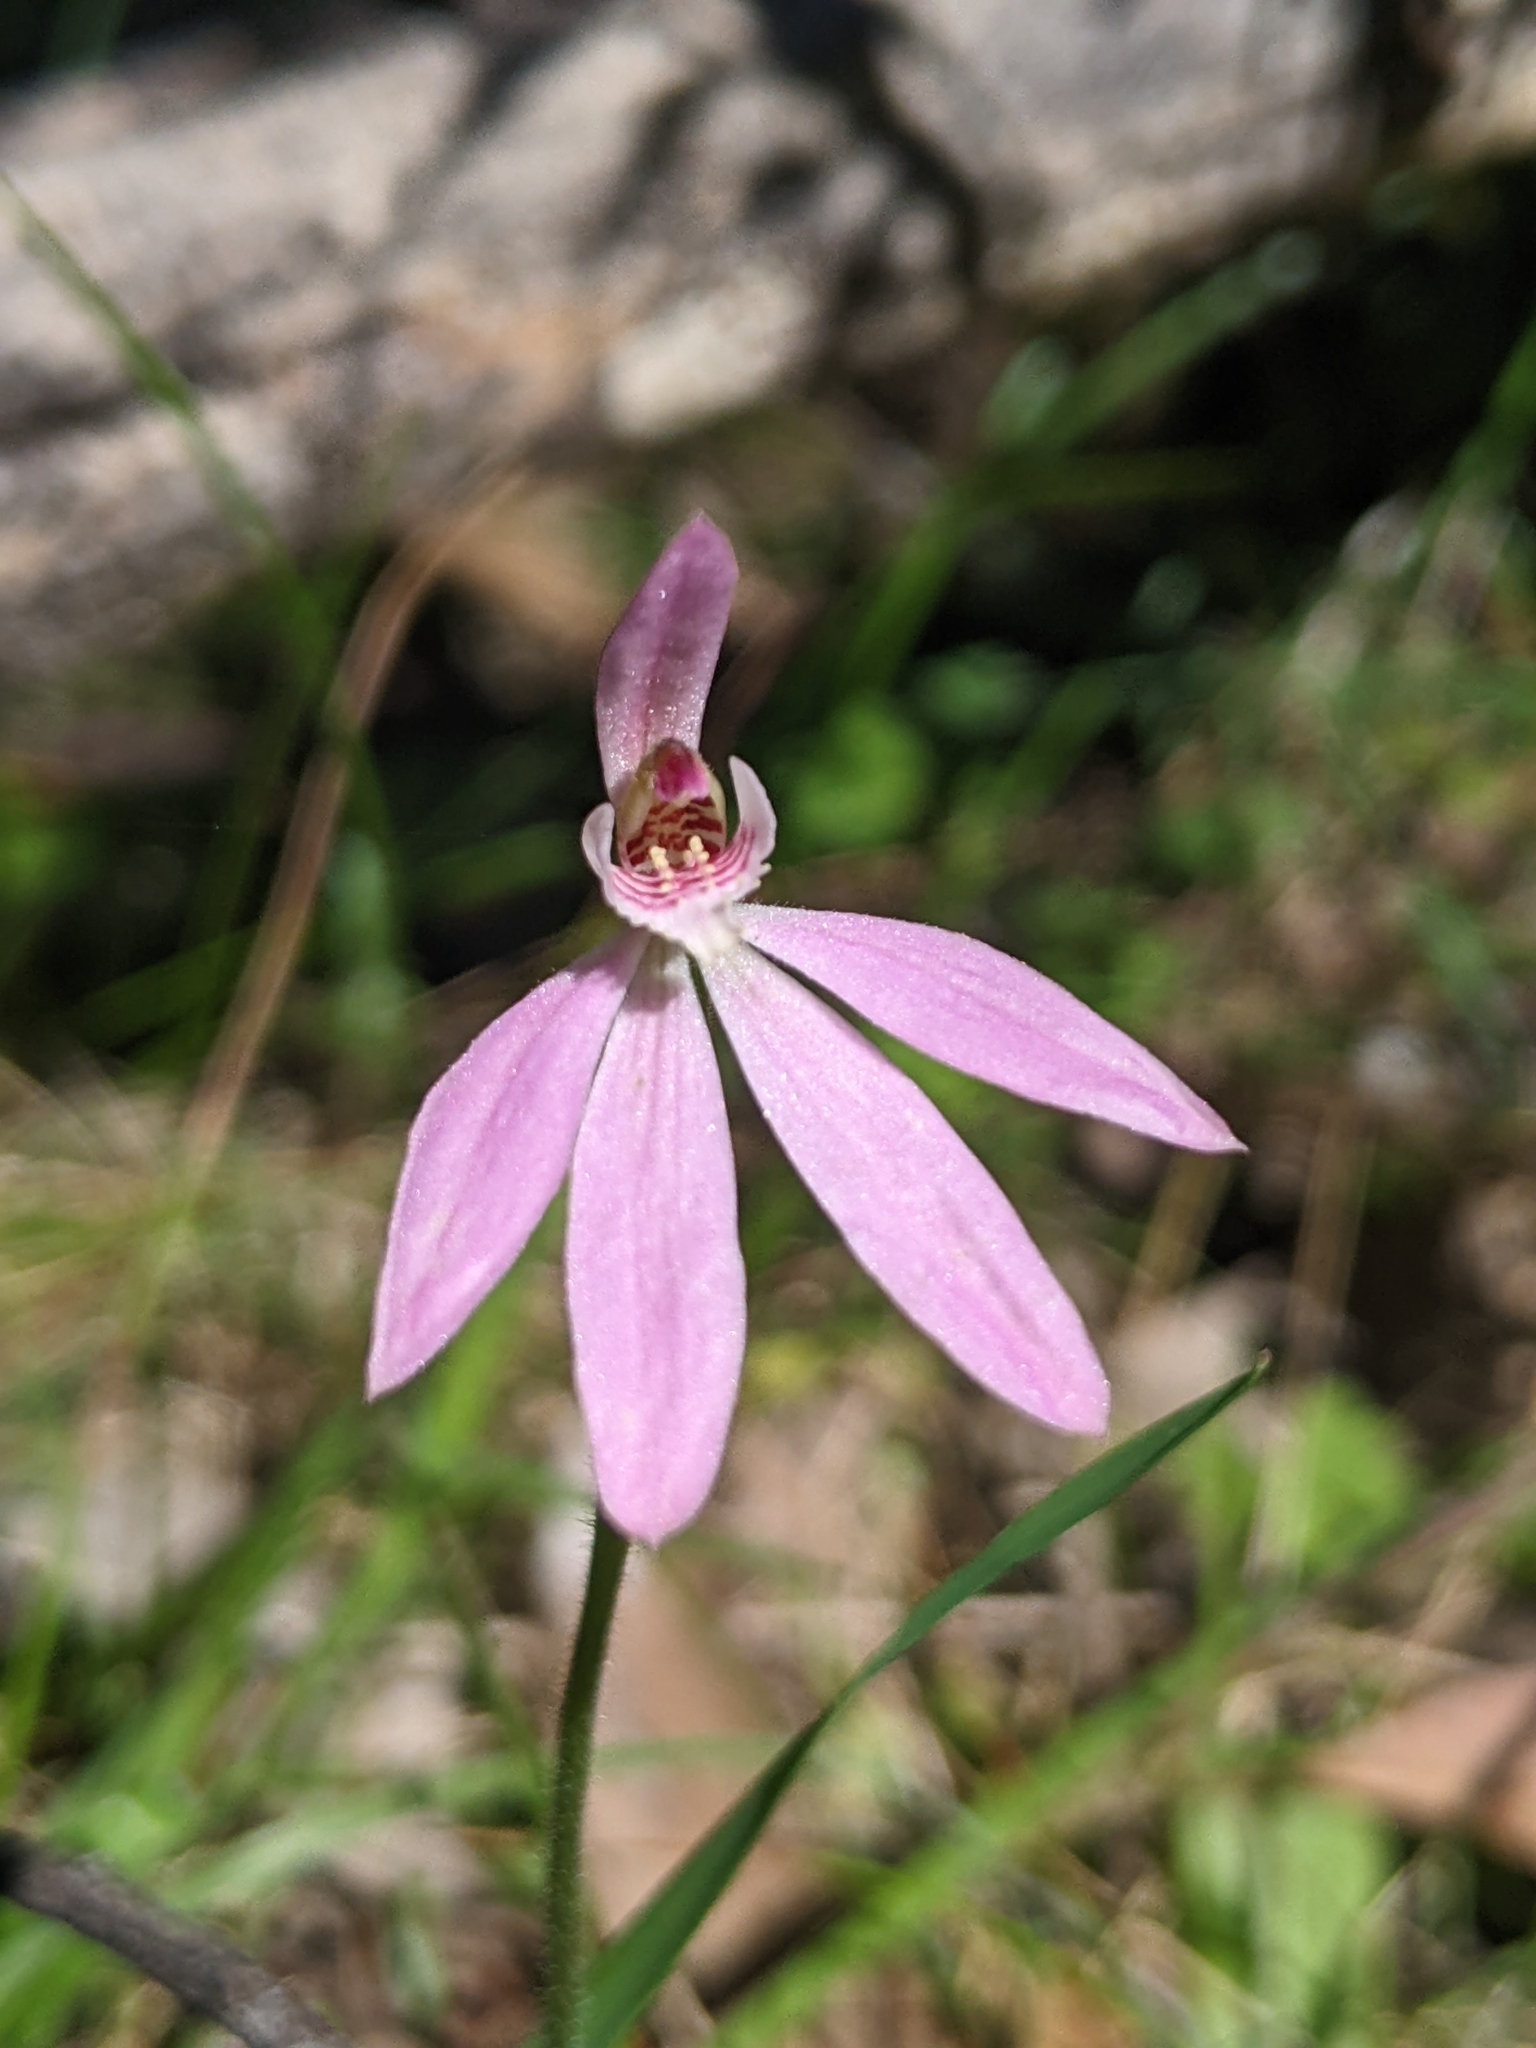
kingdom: Plantae
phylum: Tracheophyta
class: Liliopsida
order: Asparagales
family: Orchidaceae
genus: Caladenia
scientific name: Caladenia carnea
